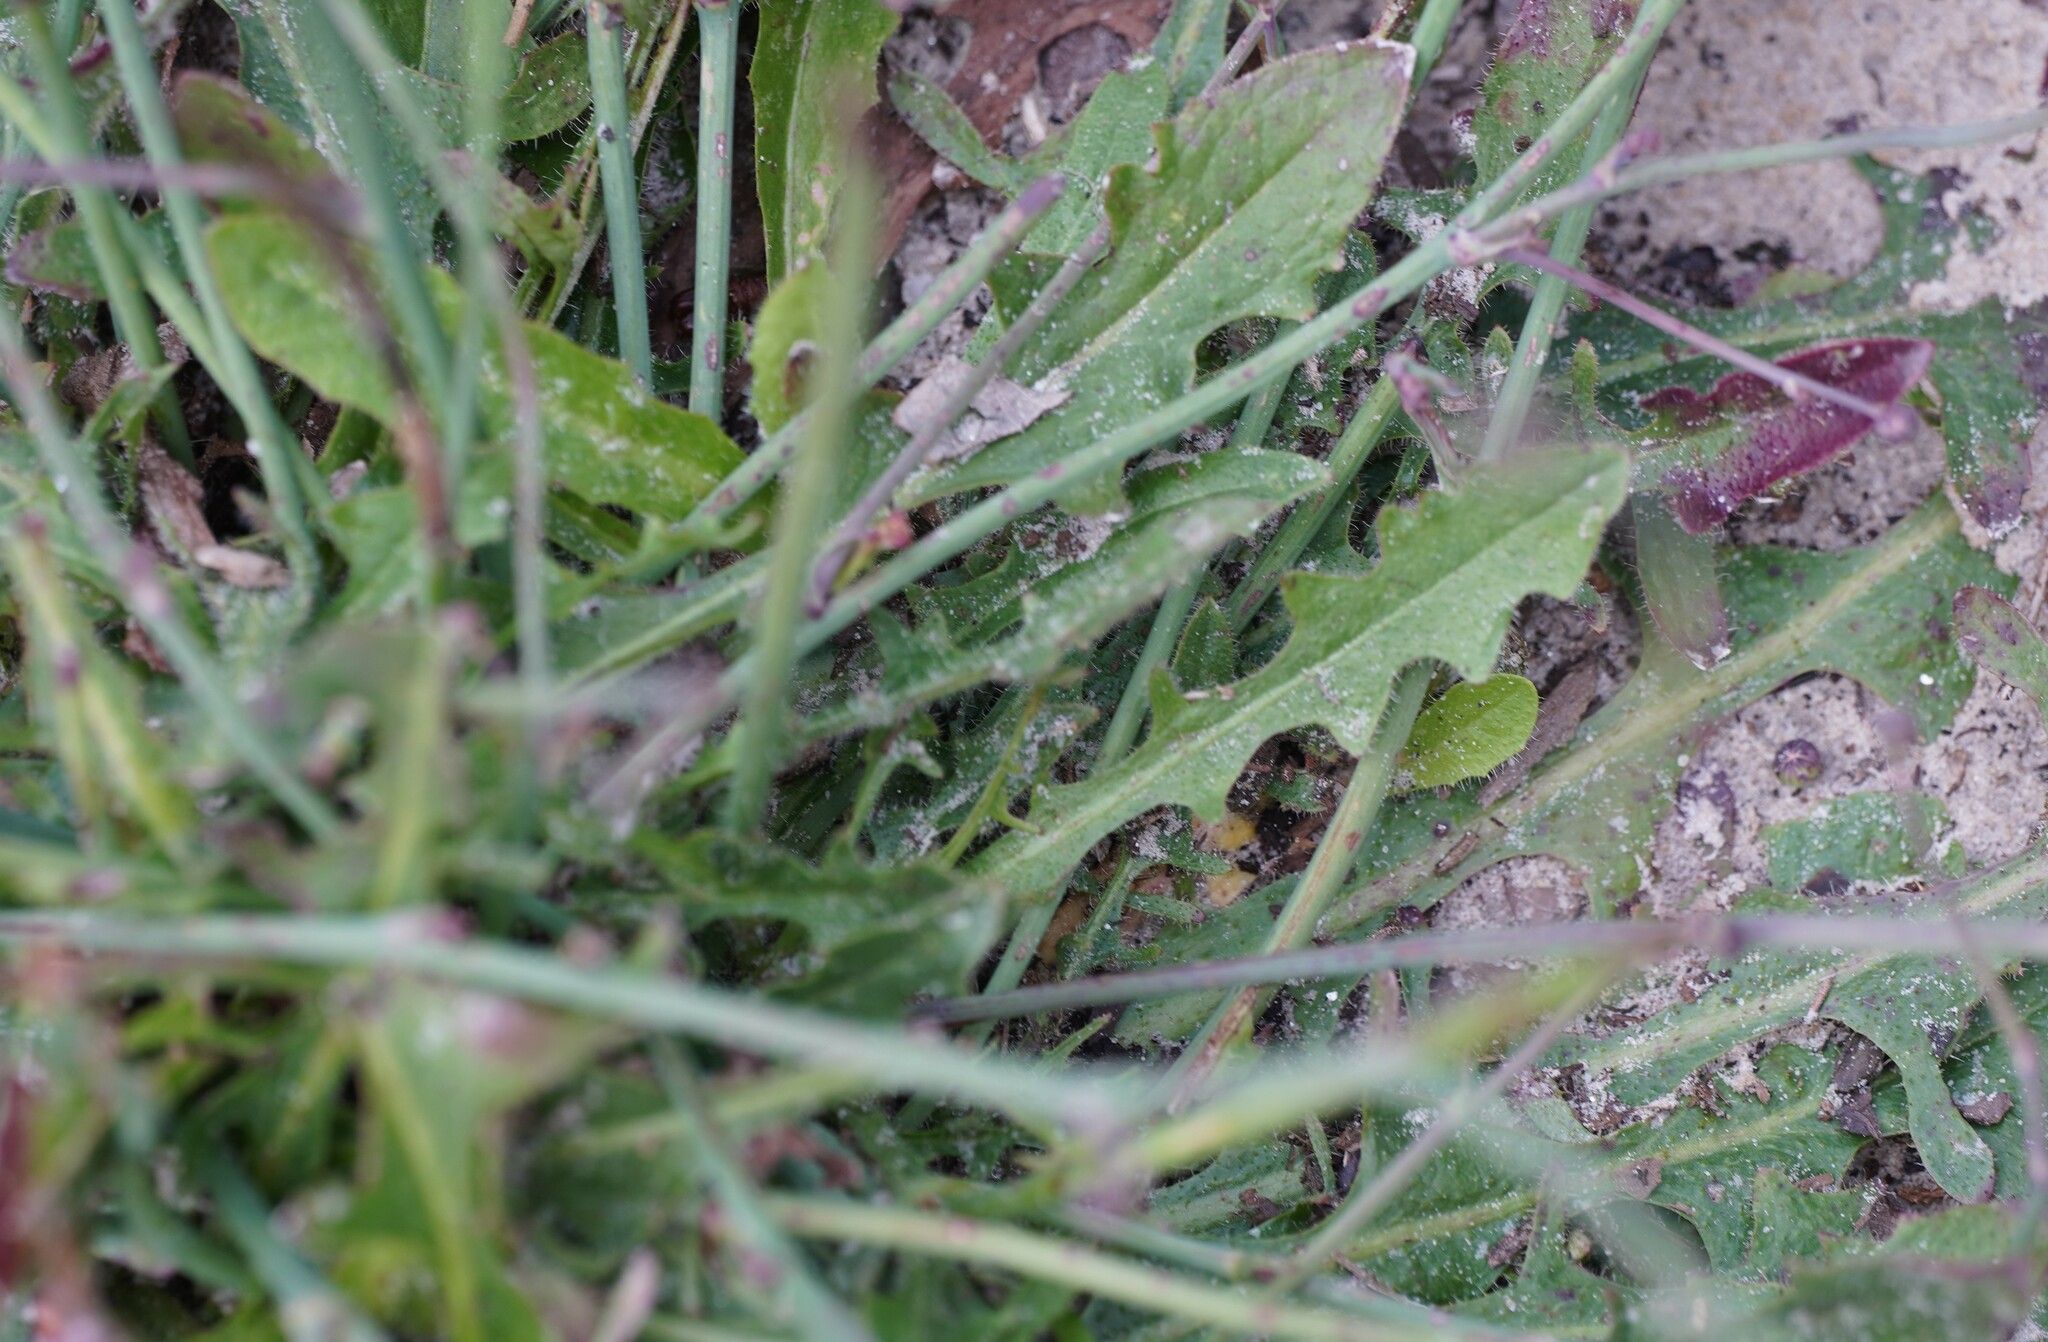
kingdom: Plantae
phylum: Tracheophyta
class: Magnoliopsida
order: Asterales
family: Asteraceae
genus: Hypochaeris
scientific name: Hypochaeris radicata
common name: Flatweed
